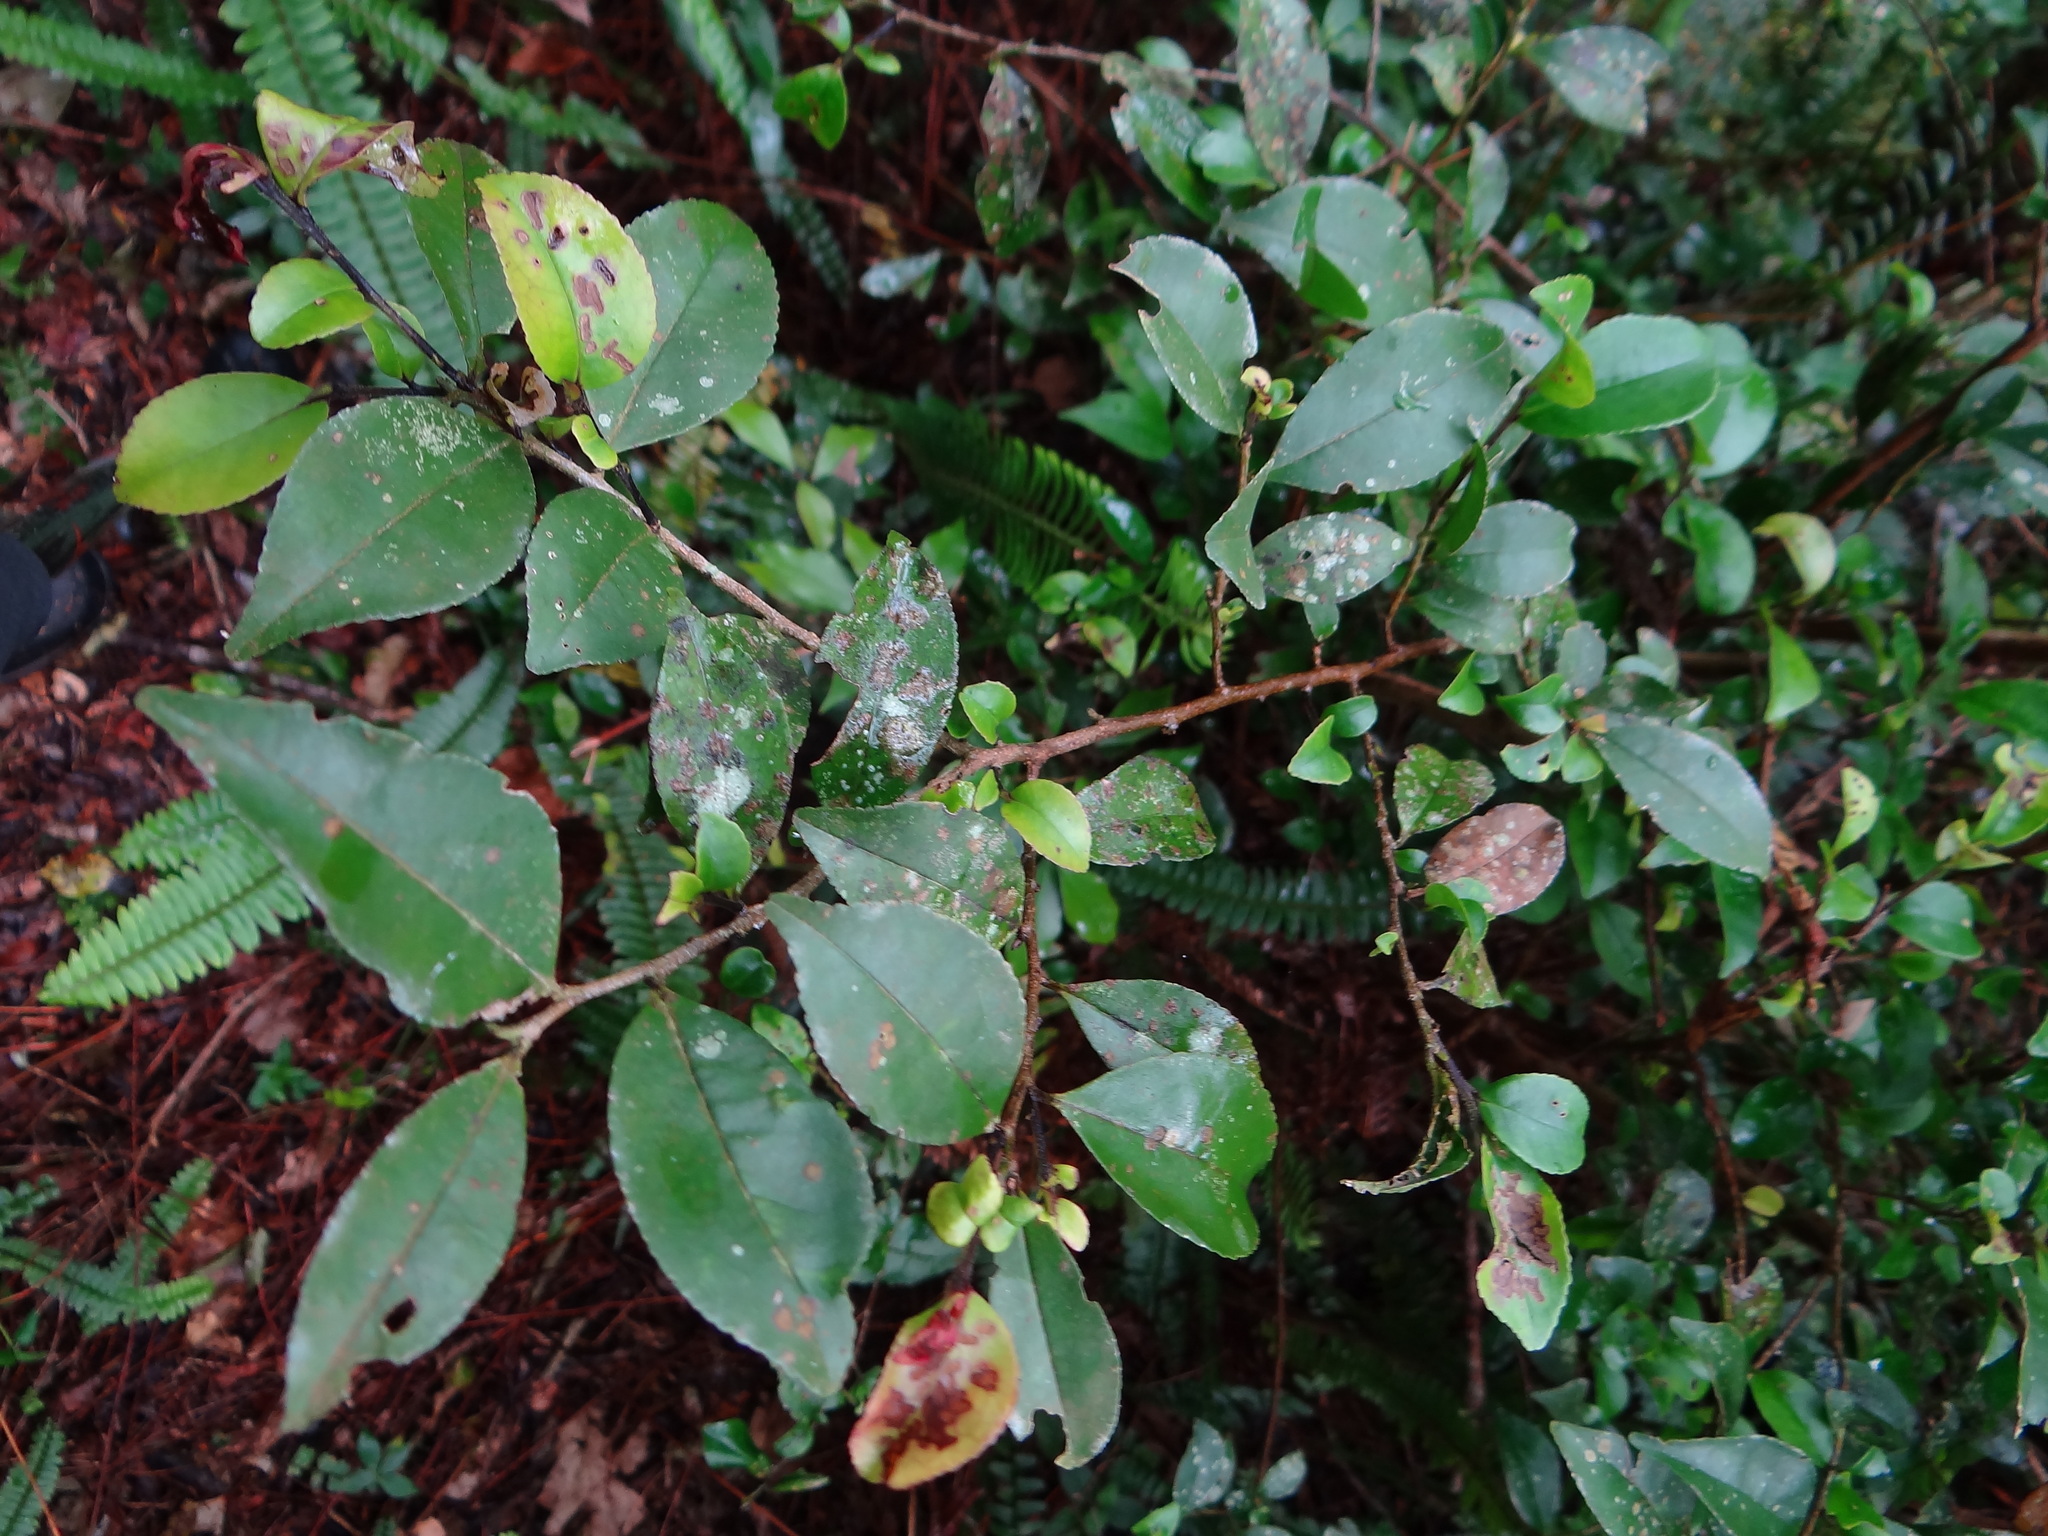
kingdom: Plantae
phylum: Tracheophyta
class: Magnoliopsida
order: Ericales
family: Pentaphylacaceae
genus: Eurya
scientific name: Eurya septata
